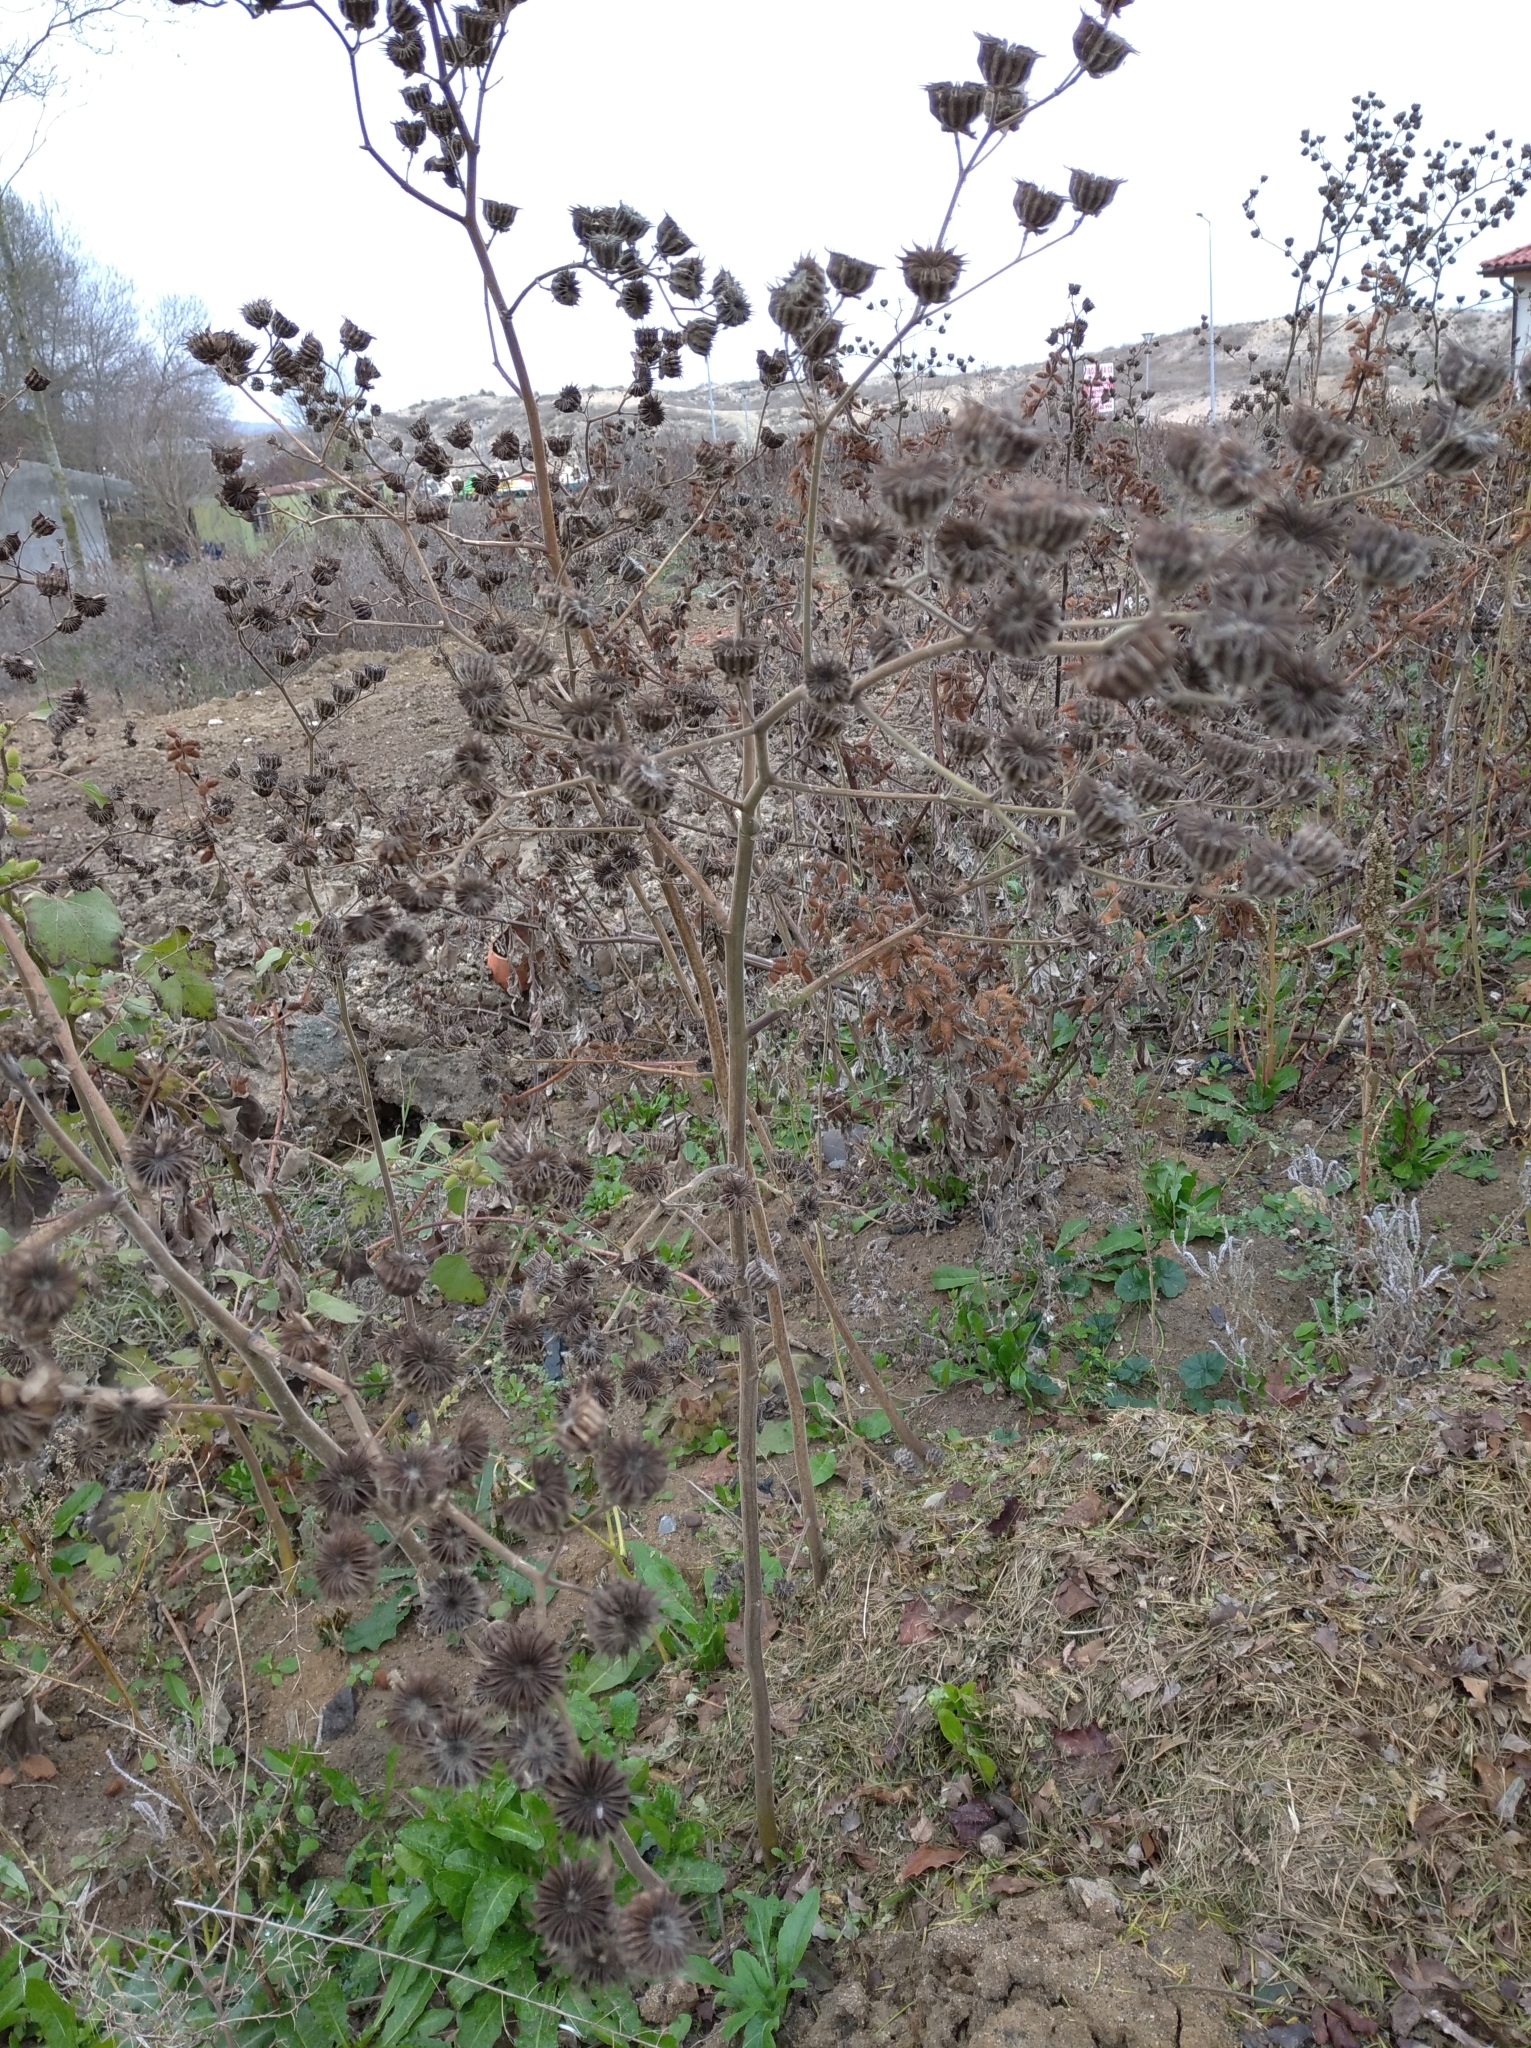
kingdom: Plantae
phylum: Tracheophyta
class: Magnoliopsida
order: Malvales
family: Malvaceae
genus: Abutilon
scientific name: Abutilon theophrasti
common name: Velvetleaf
